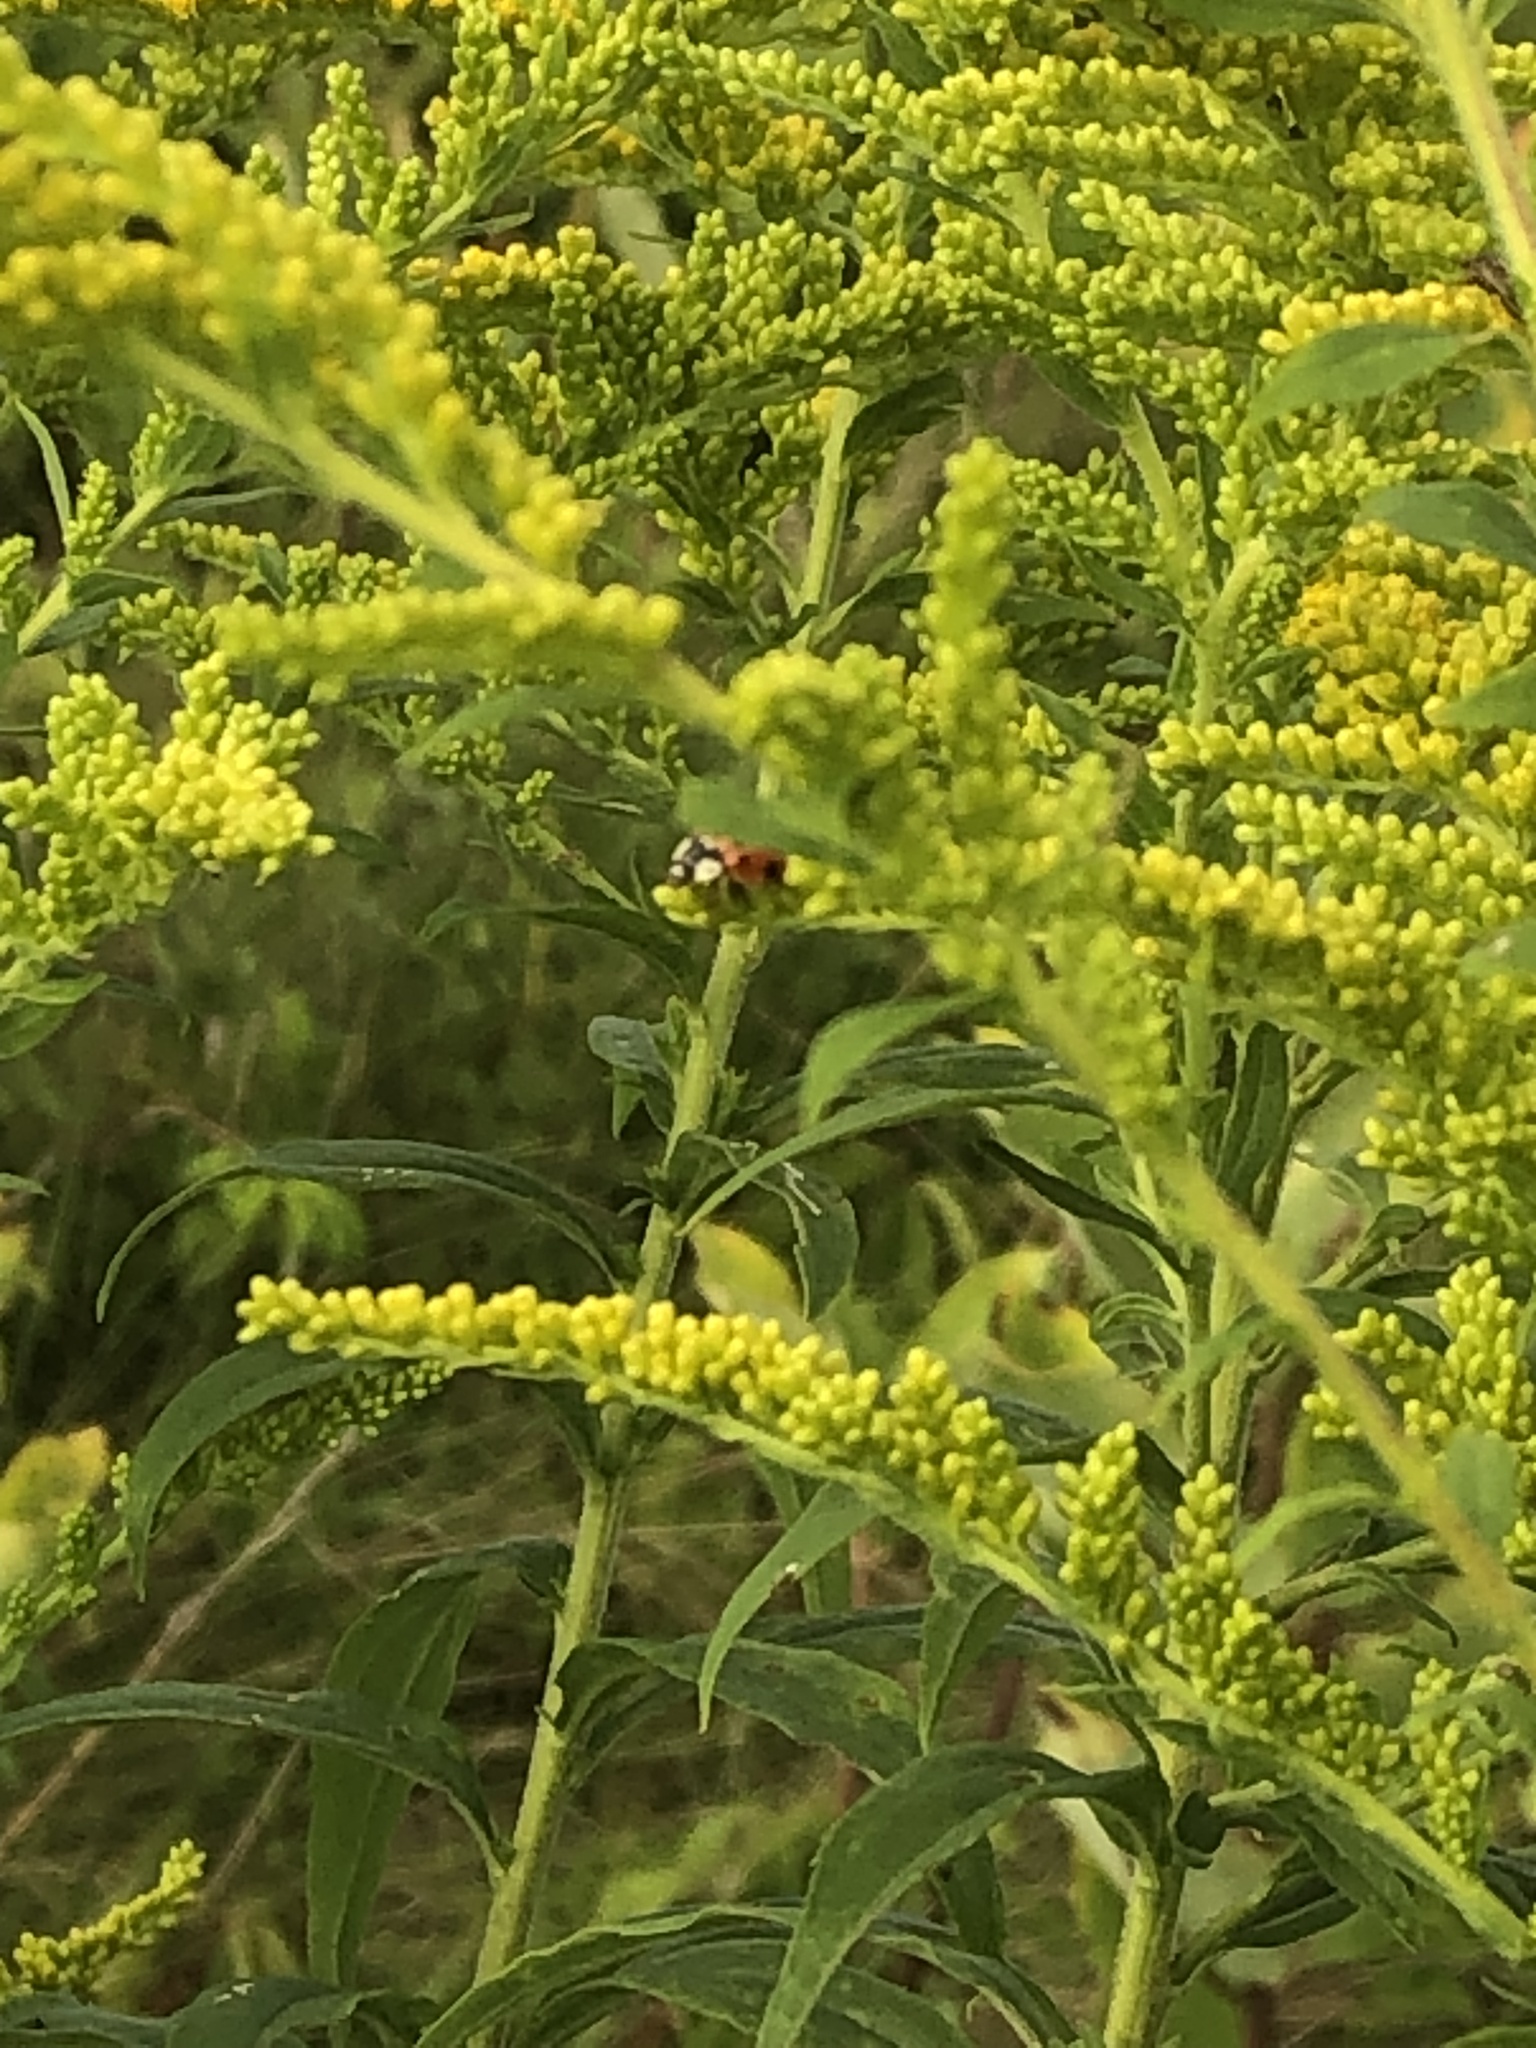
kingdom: Animalia
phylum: Arthropoda
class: Insecta
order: Coleoptera
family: Coccinellidae
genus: Harmonia
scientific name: Harmonia axyridis
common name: Harlequin ladybird
